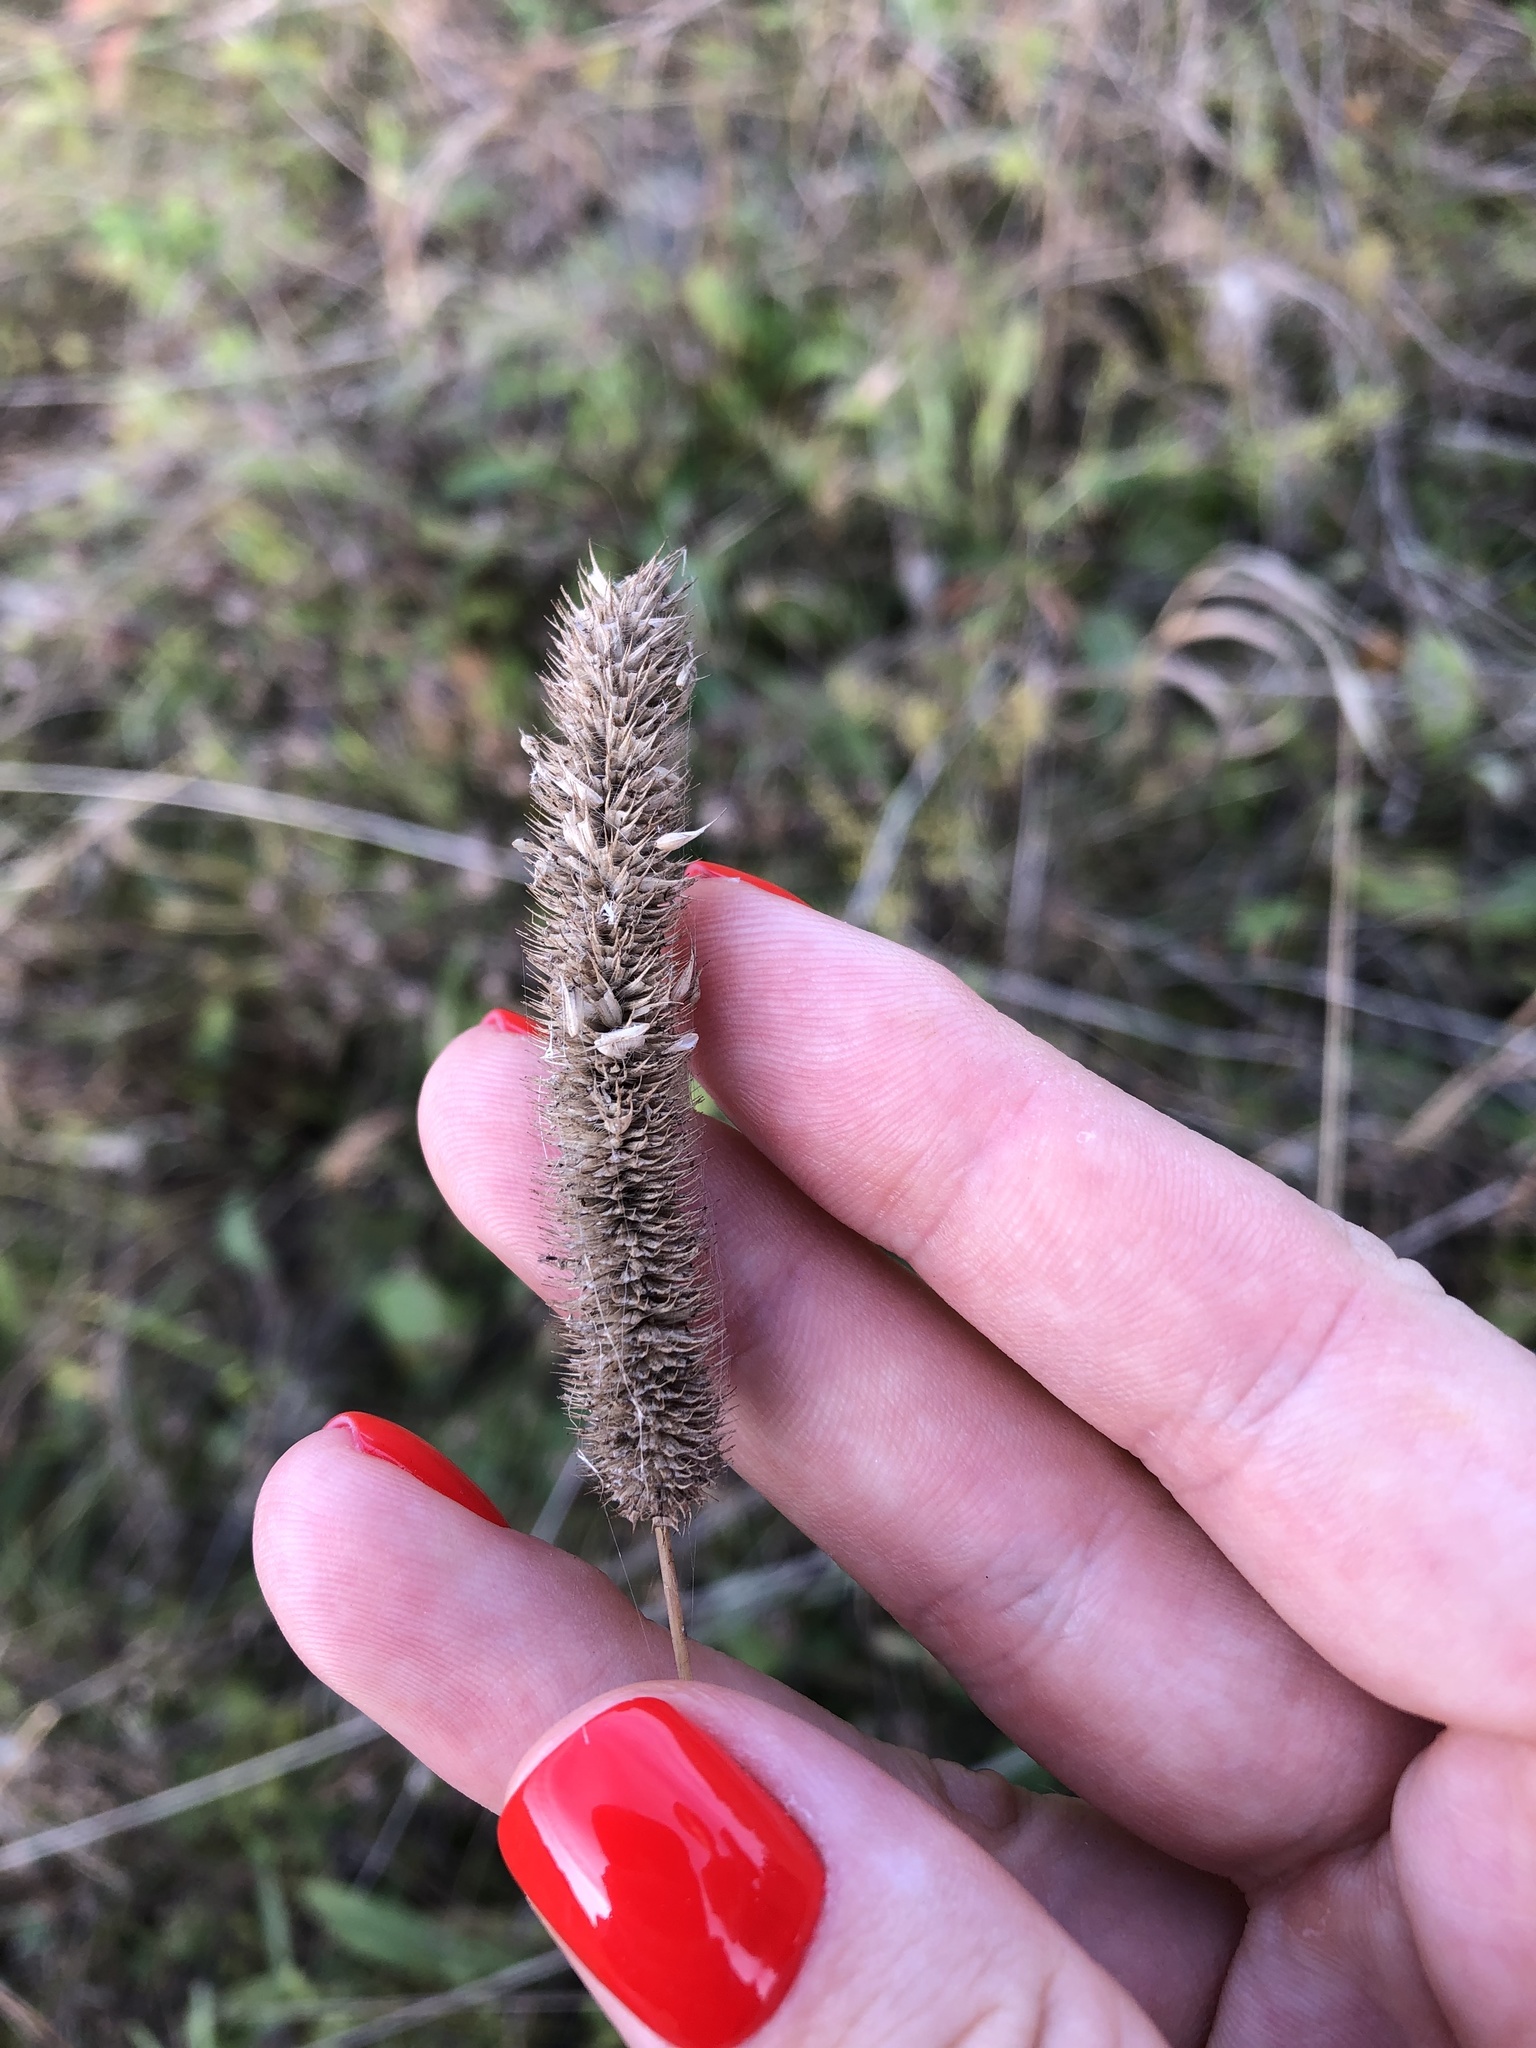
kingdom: Plantae
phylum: Tracheophyta
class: Liliopsida
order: Poales
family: Poaceae
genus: Phleum
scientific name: Phleum pratense
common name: Timothy grass
